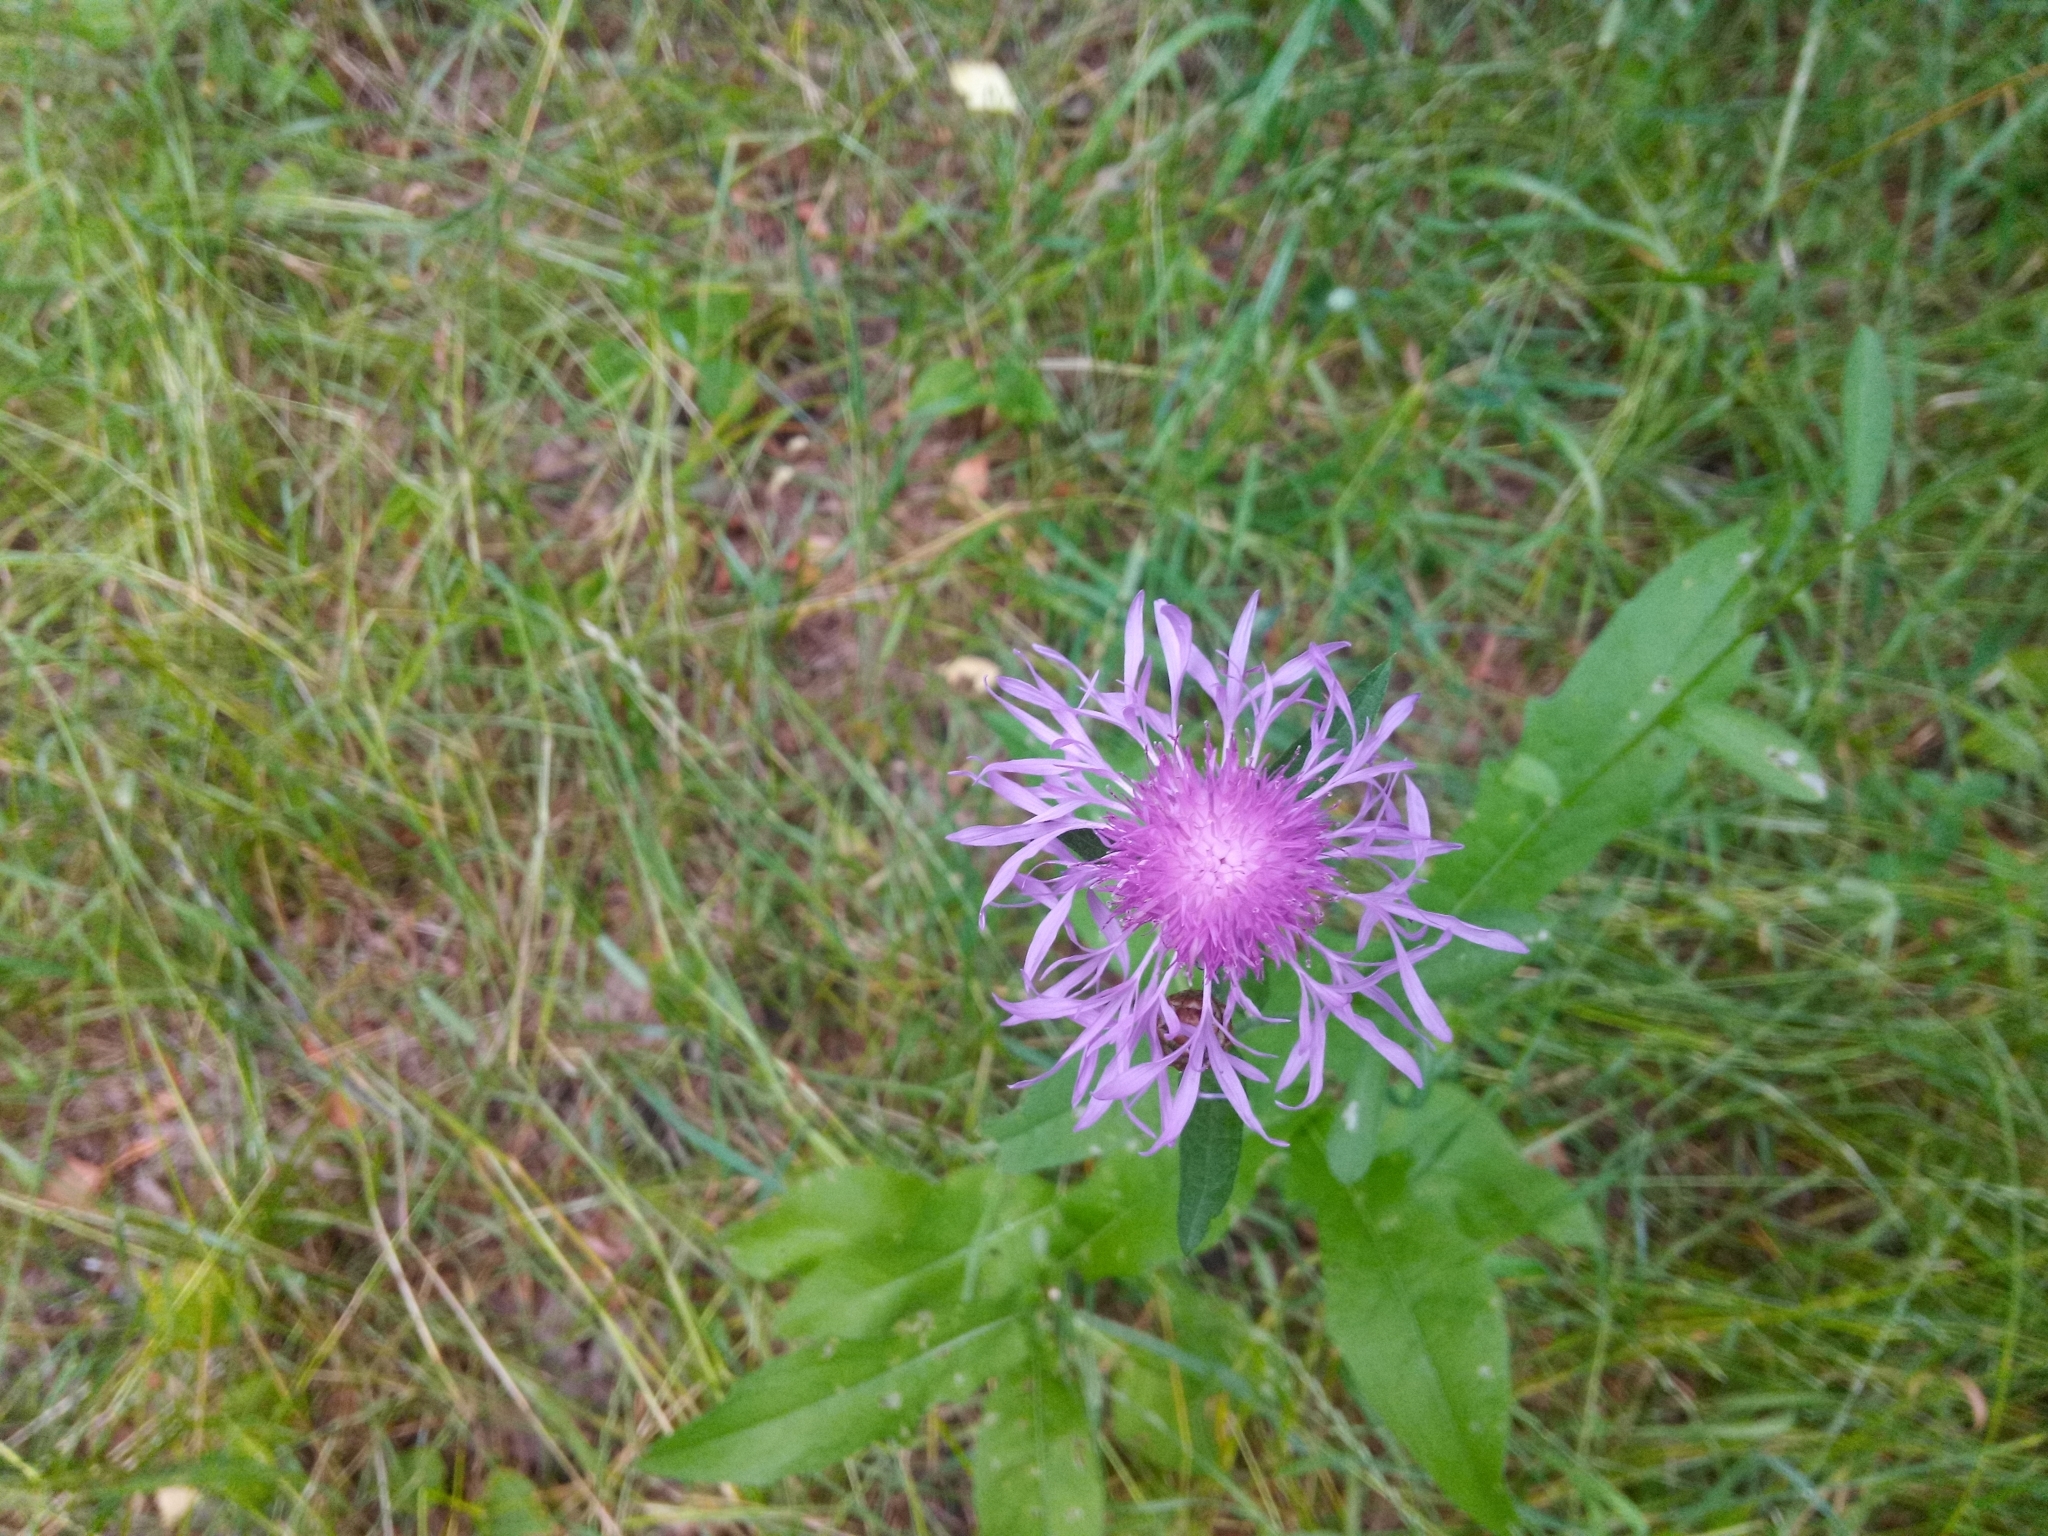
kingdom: Plantae
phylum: Tracheophyta
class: Magnoliopsida
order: Asterales
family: Asteraceae
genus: Centaurea
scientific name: Centaurea jacea
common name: Brown knapweed
